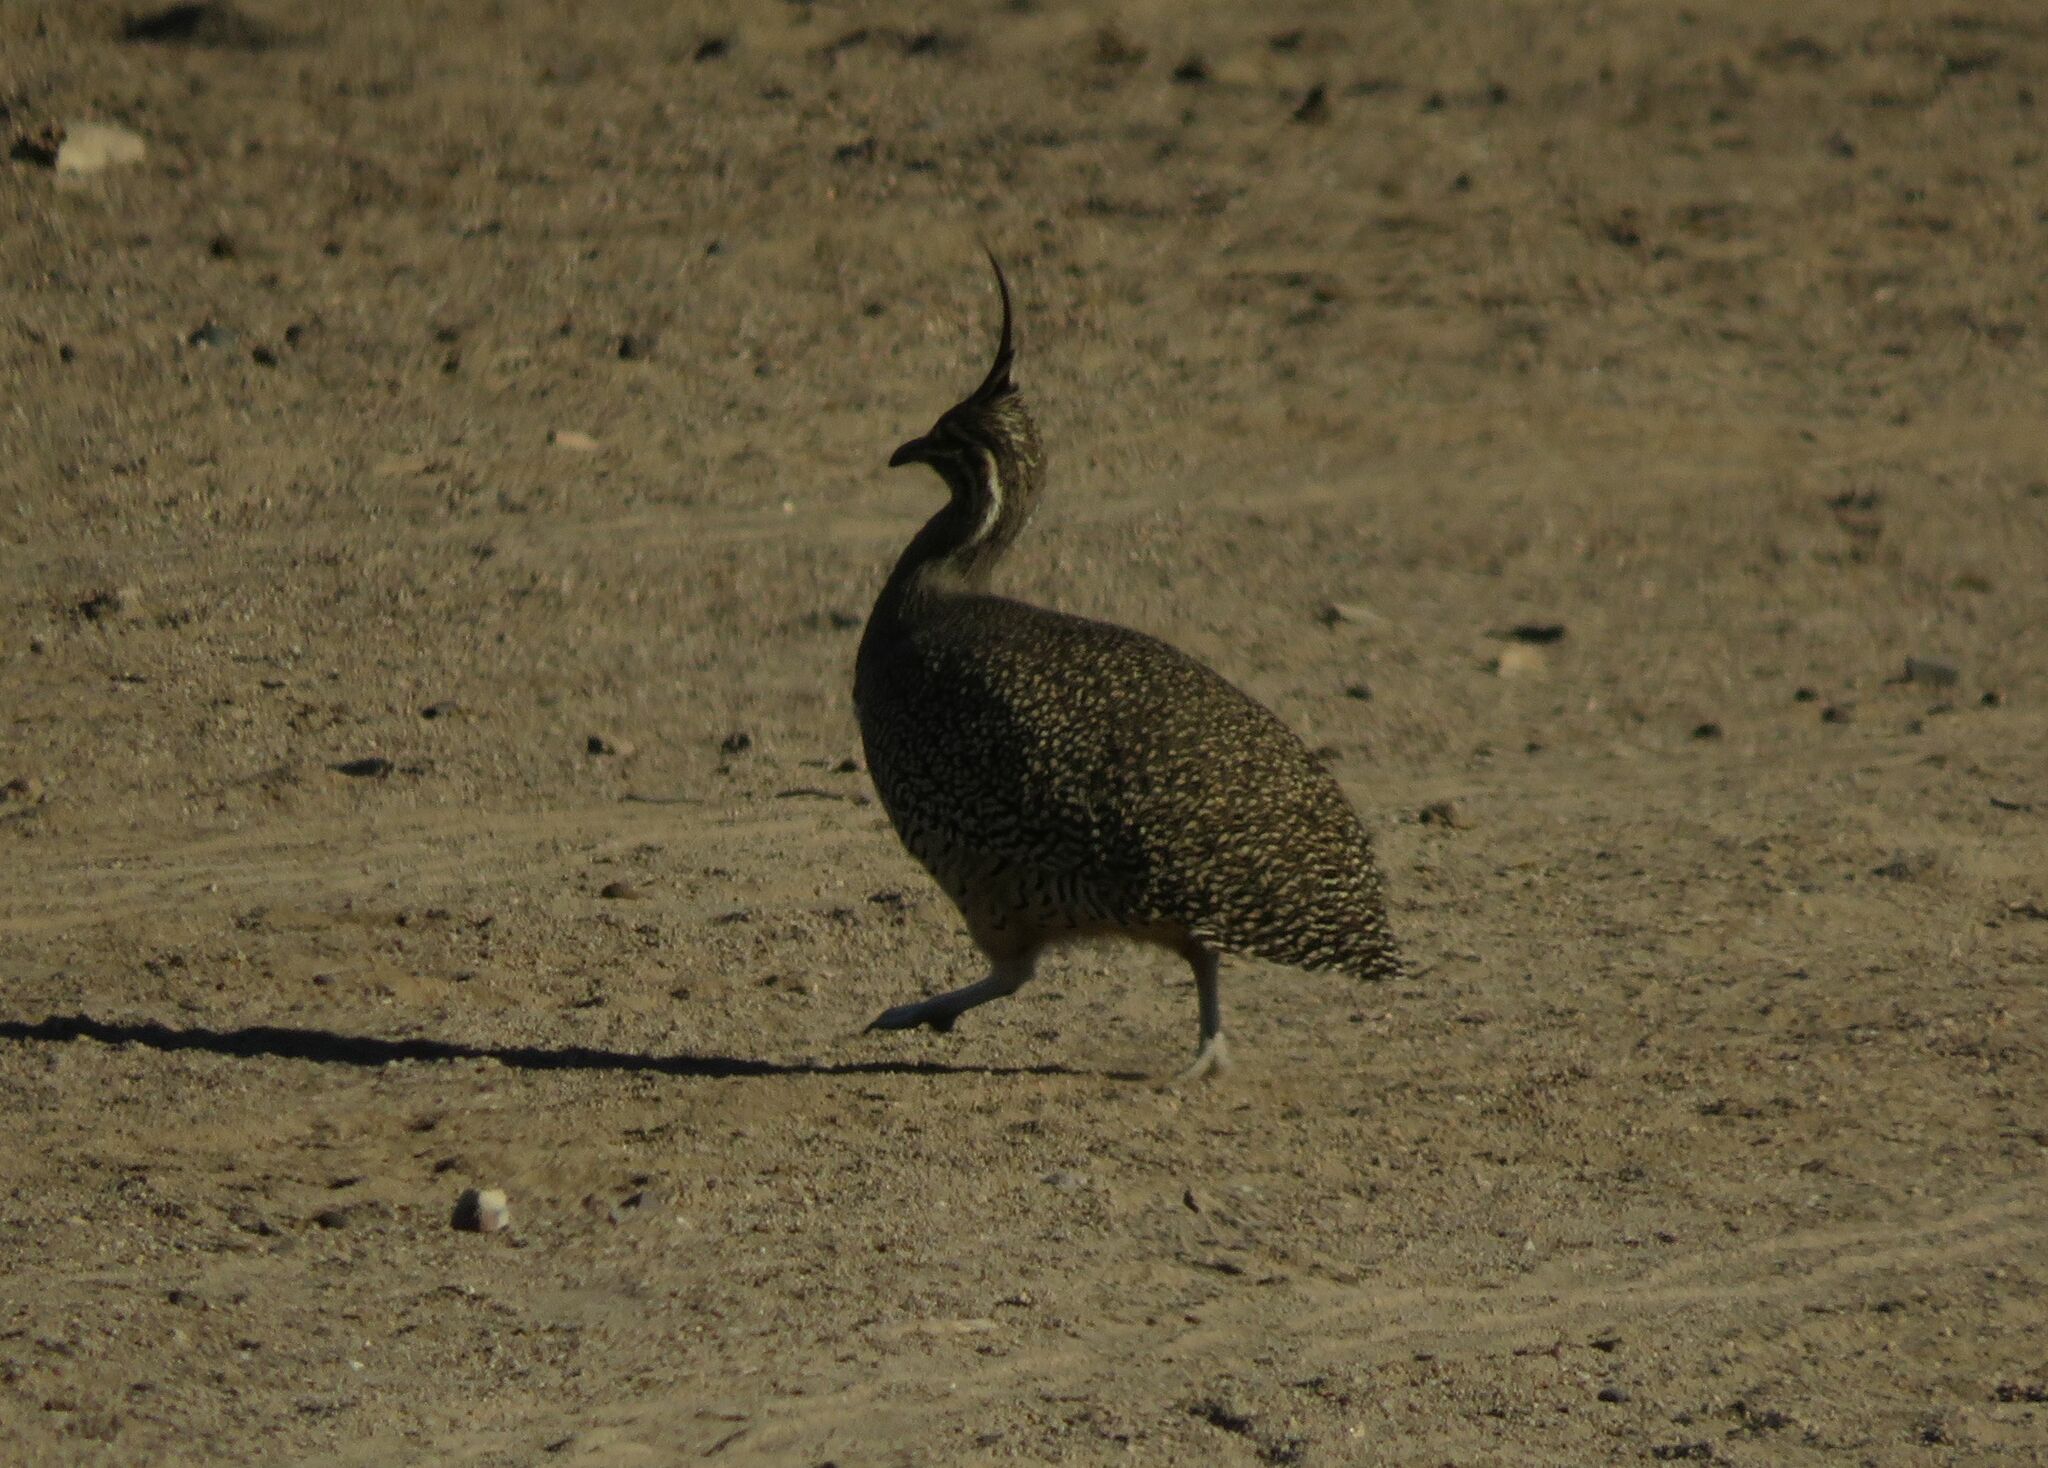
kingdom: Animalia
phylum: Chordata
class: Aves
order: Tinamiformes
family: Tinamidae
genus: Eudromia
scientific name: Eudromia elegans
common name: Elegant crested tinamou
